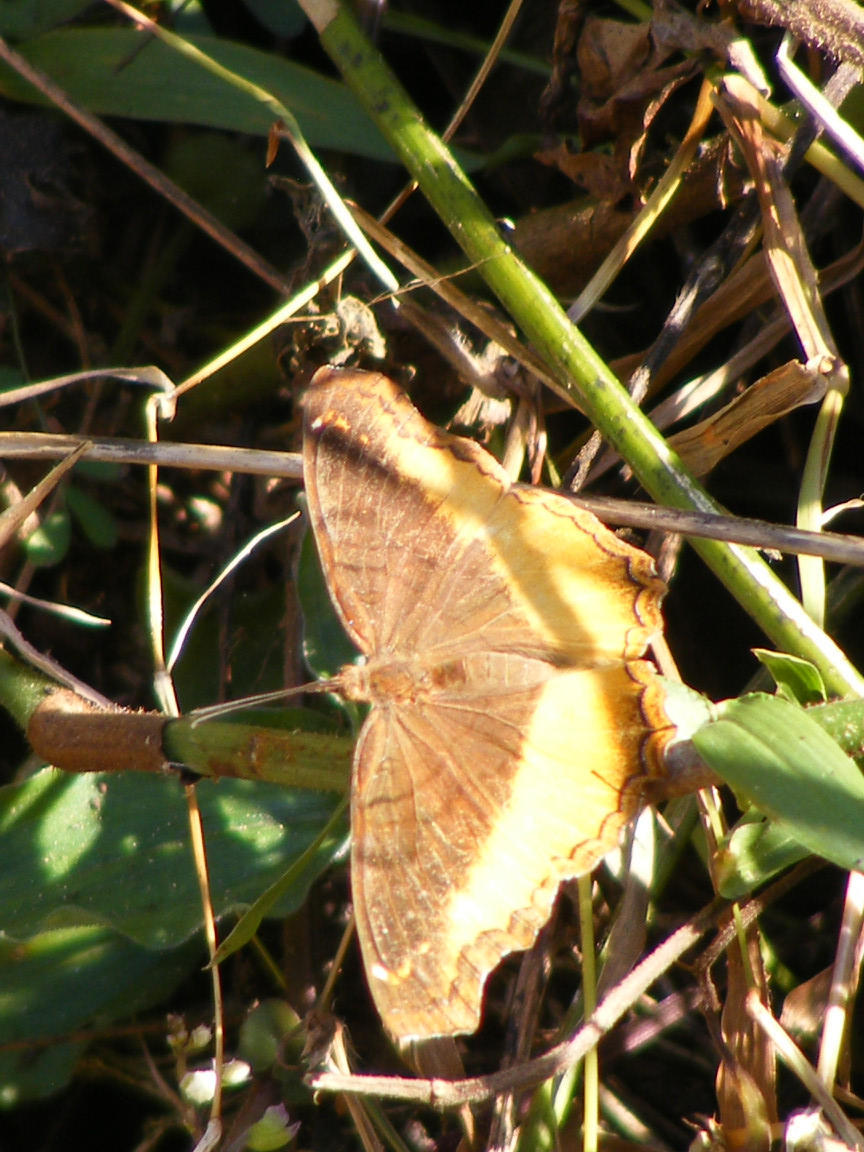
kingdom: Animalia
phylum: Arthropoda
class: Insecta
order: Lepidoptera
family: Nymphalidae
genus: Eurytela
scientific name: Eurytela dryope
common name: Golden piper
